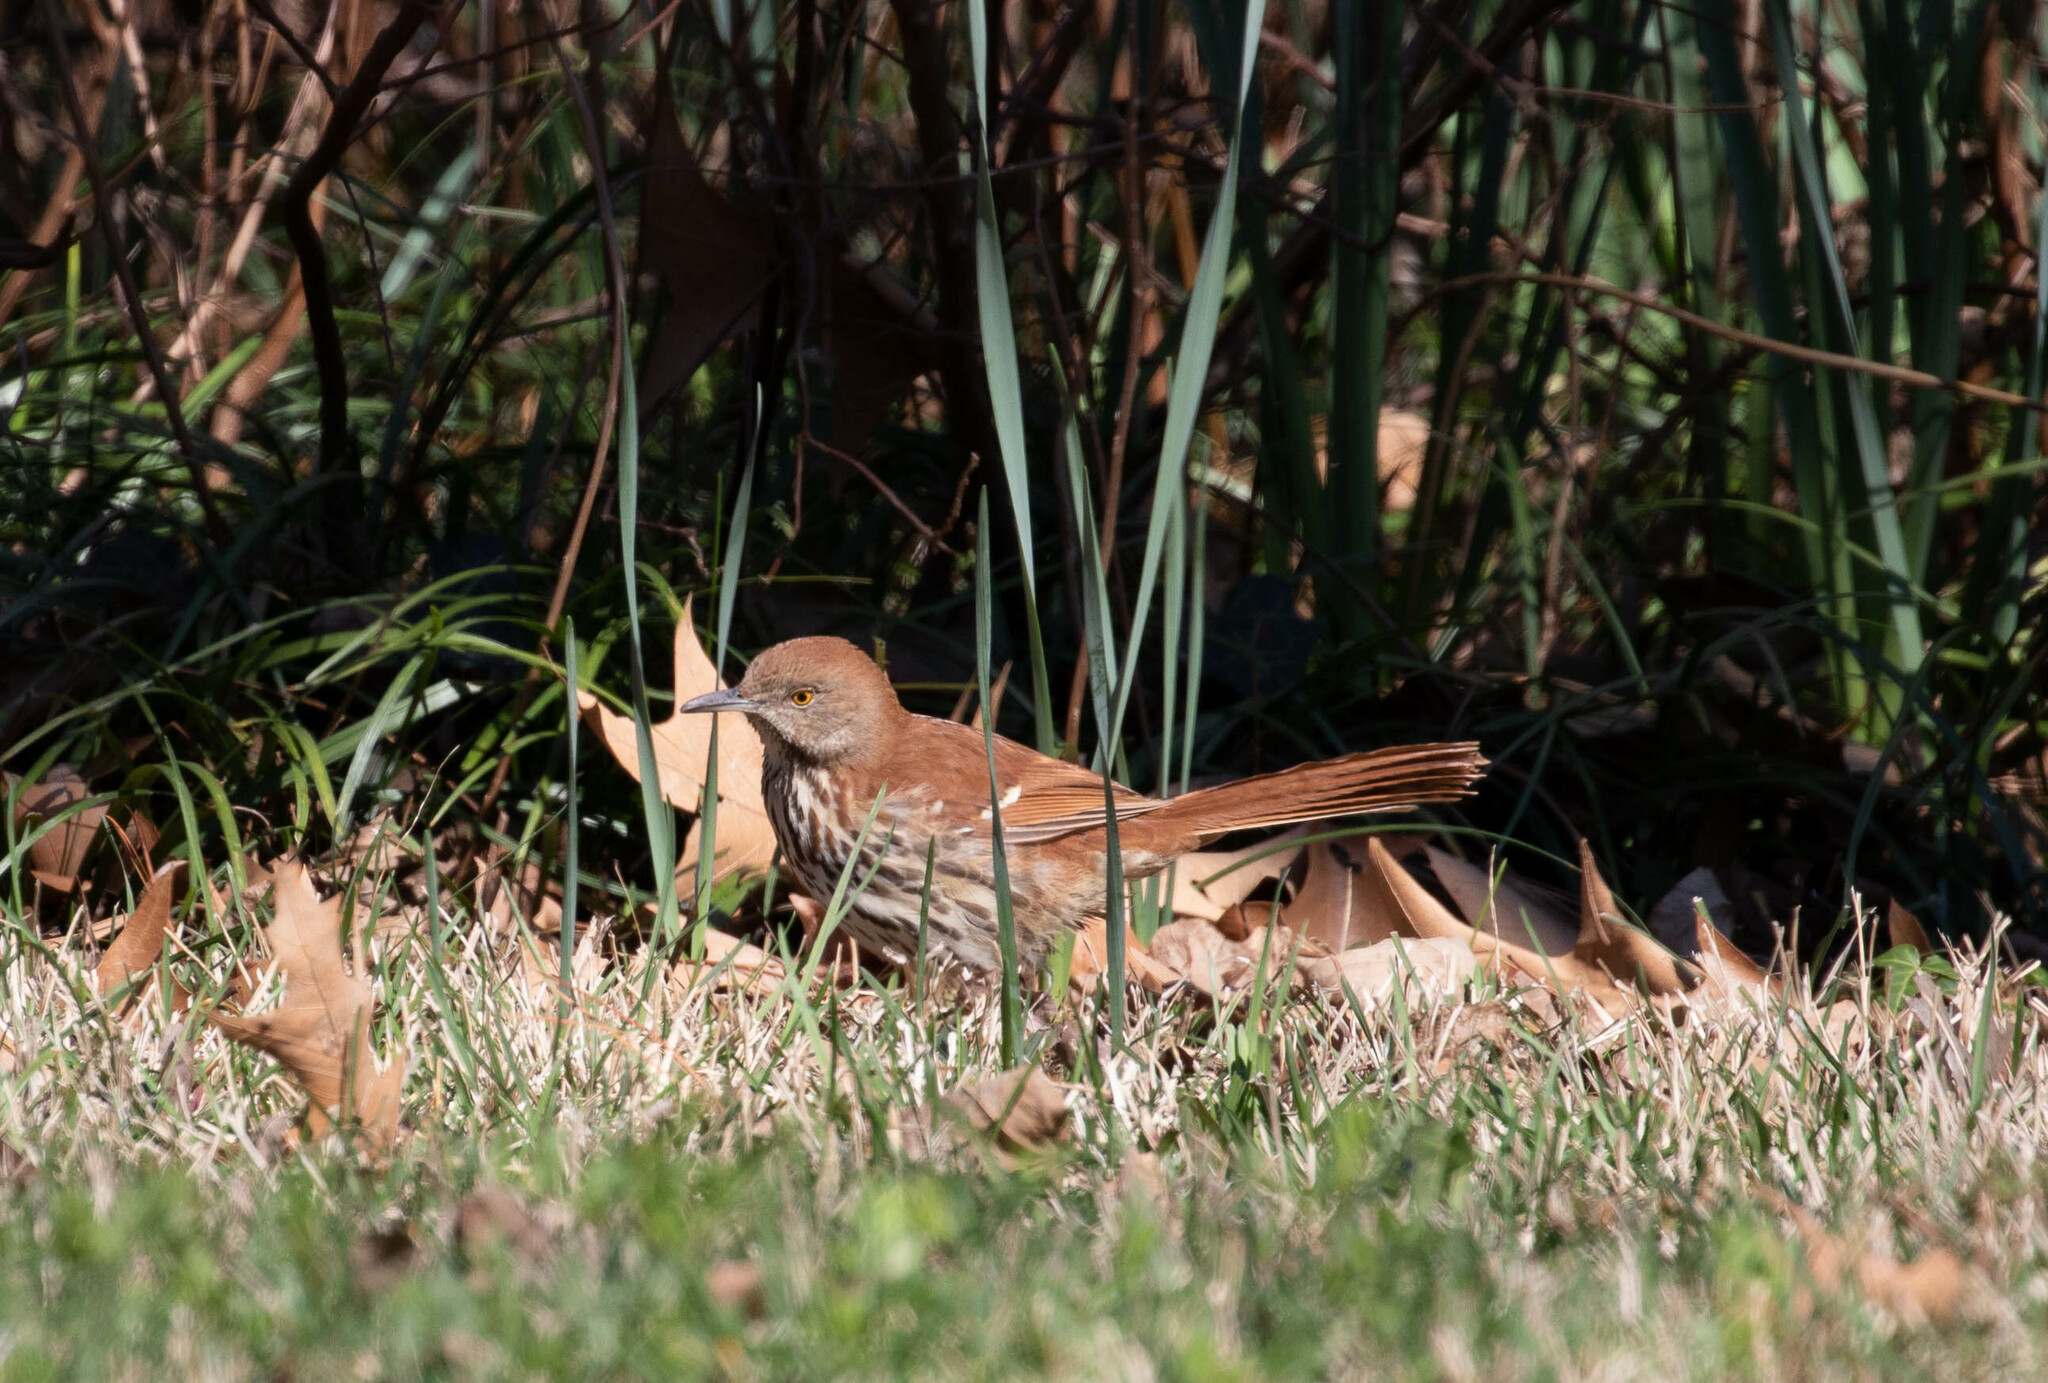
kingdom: Animalia
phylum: Chordata
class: Aves
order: Passeriformes
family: Mimidae
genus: Toxostoma
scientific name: Toxostoma rufum
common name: Brown thrasher
